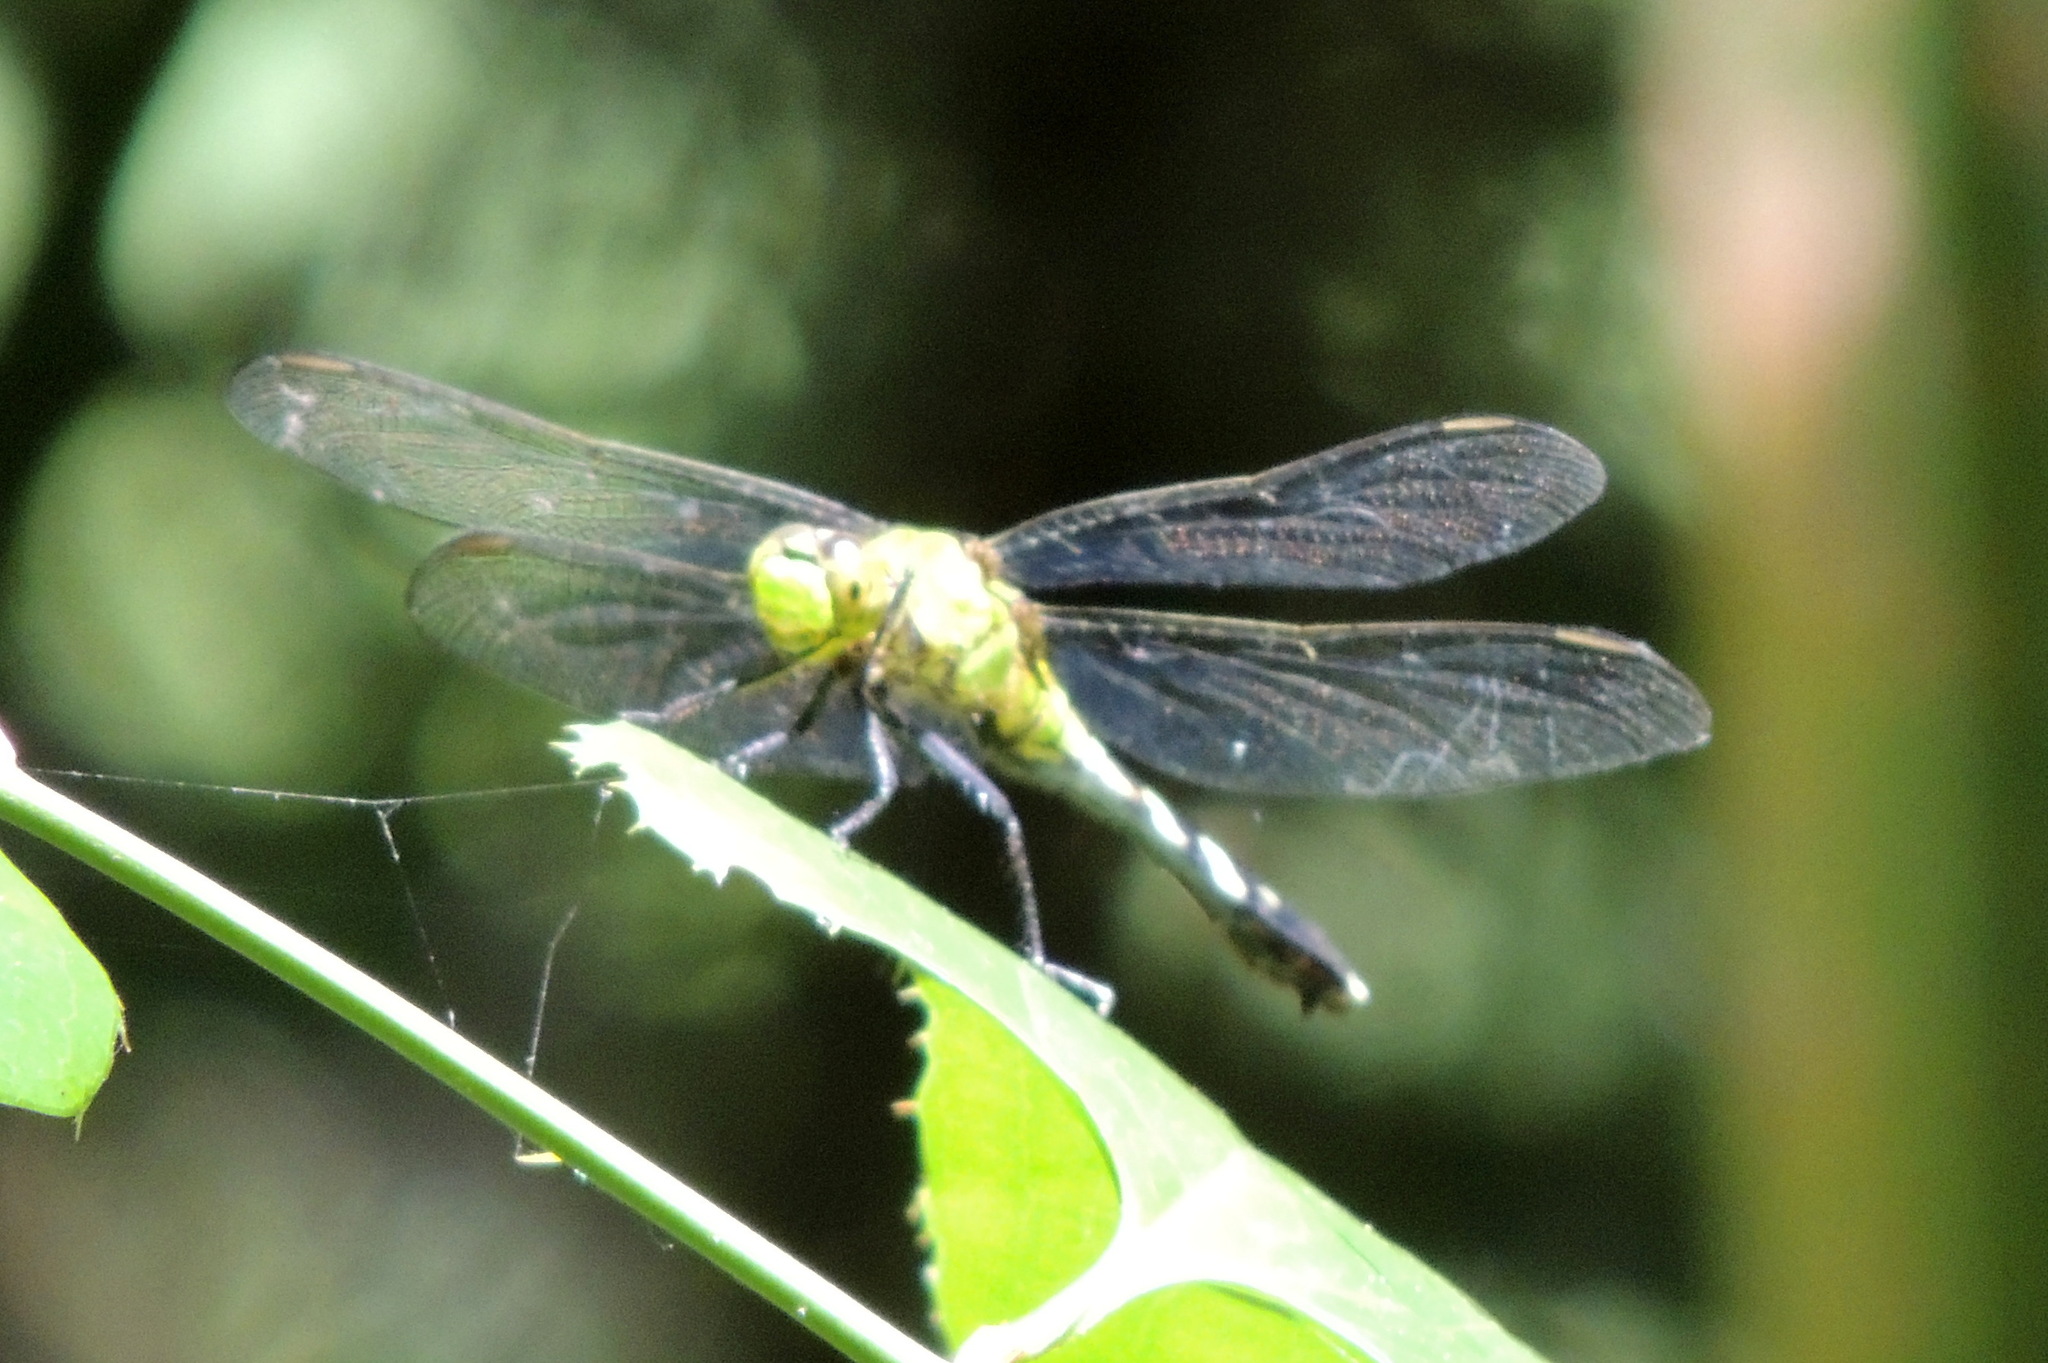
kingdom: Animalia
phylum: Arthropoda
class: Insecta
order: Odonata
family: Libellulidae
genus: Erythemis
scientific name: Erythemis simplicicollis
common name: Eastern pondhawk
